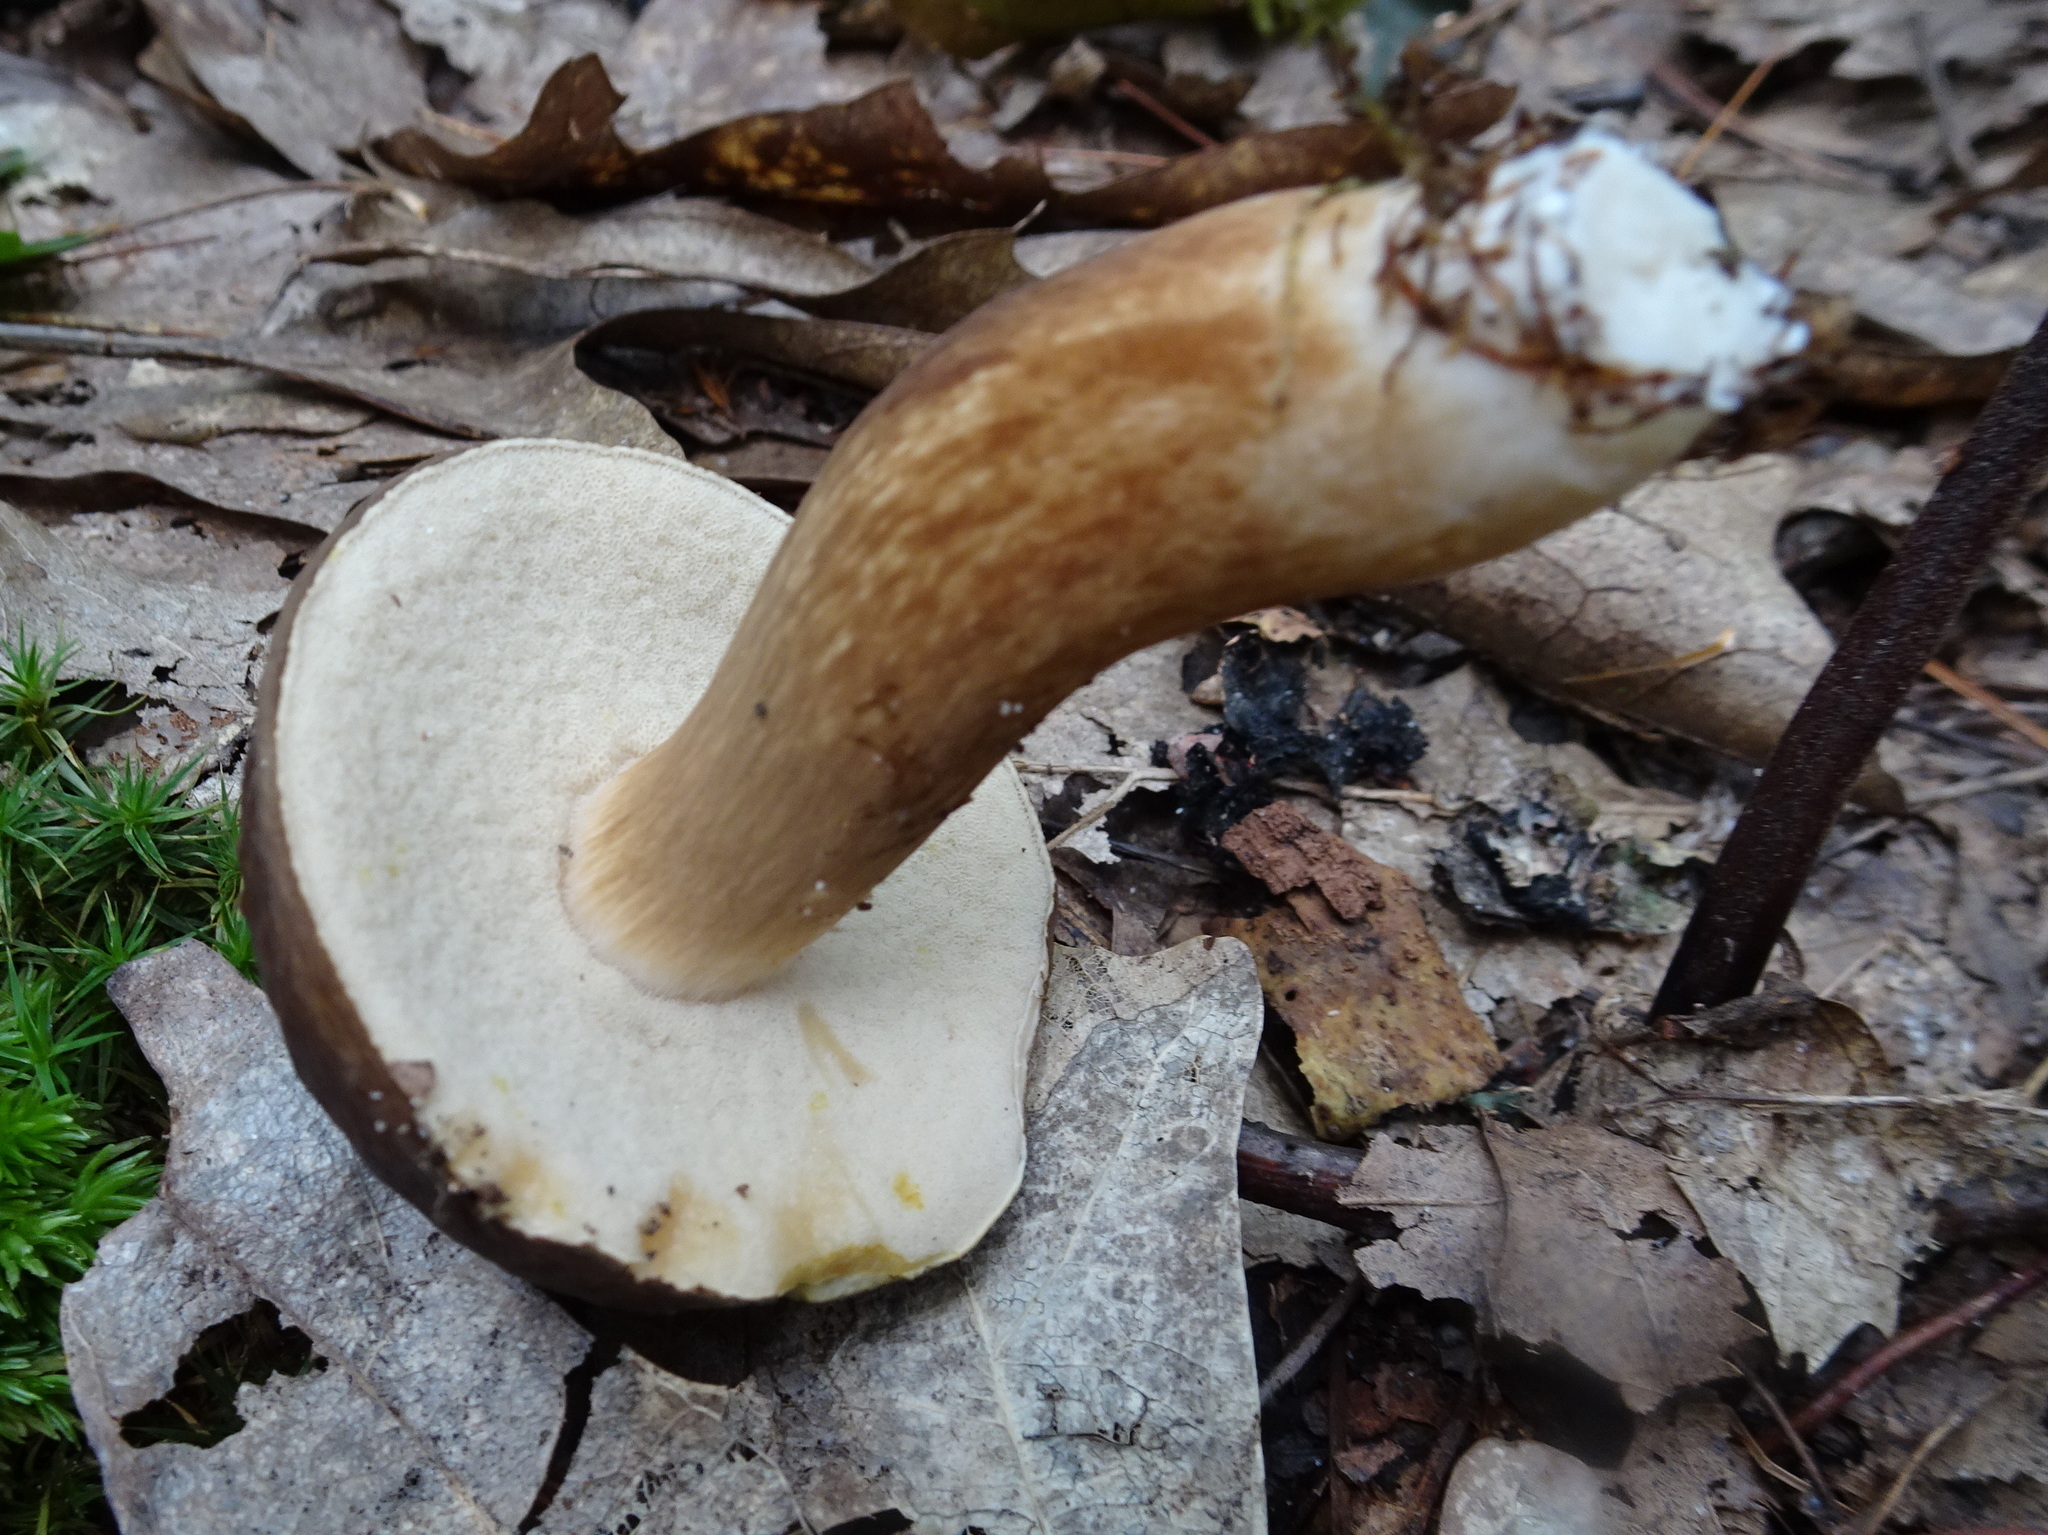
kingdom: Fungi
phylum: Basidiomycota
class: Agaricomycetes
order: Boletales
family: Boletaceae
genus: Xanthoconium
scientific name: Xanthoconium affine
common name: Spotted bolete
